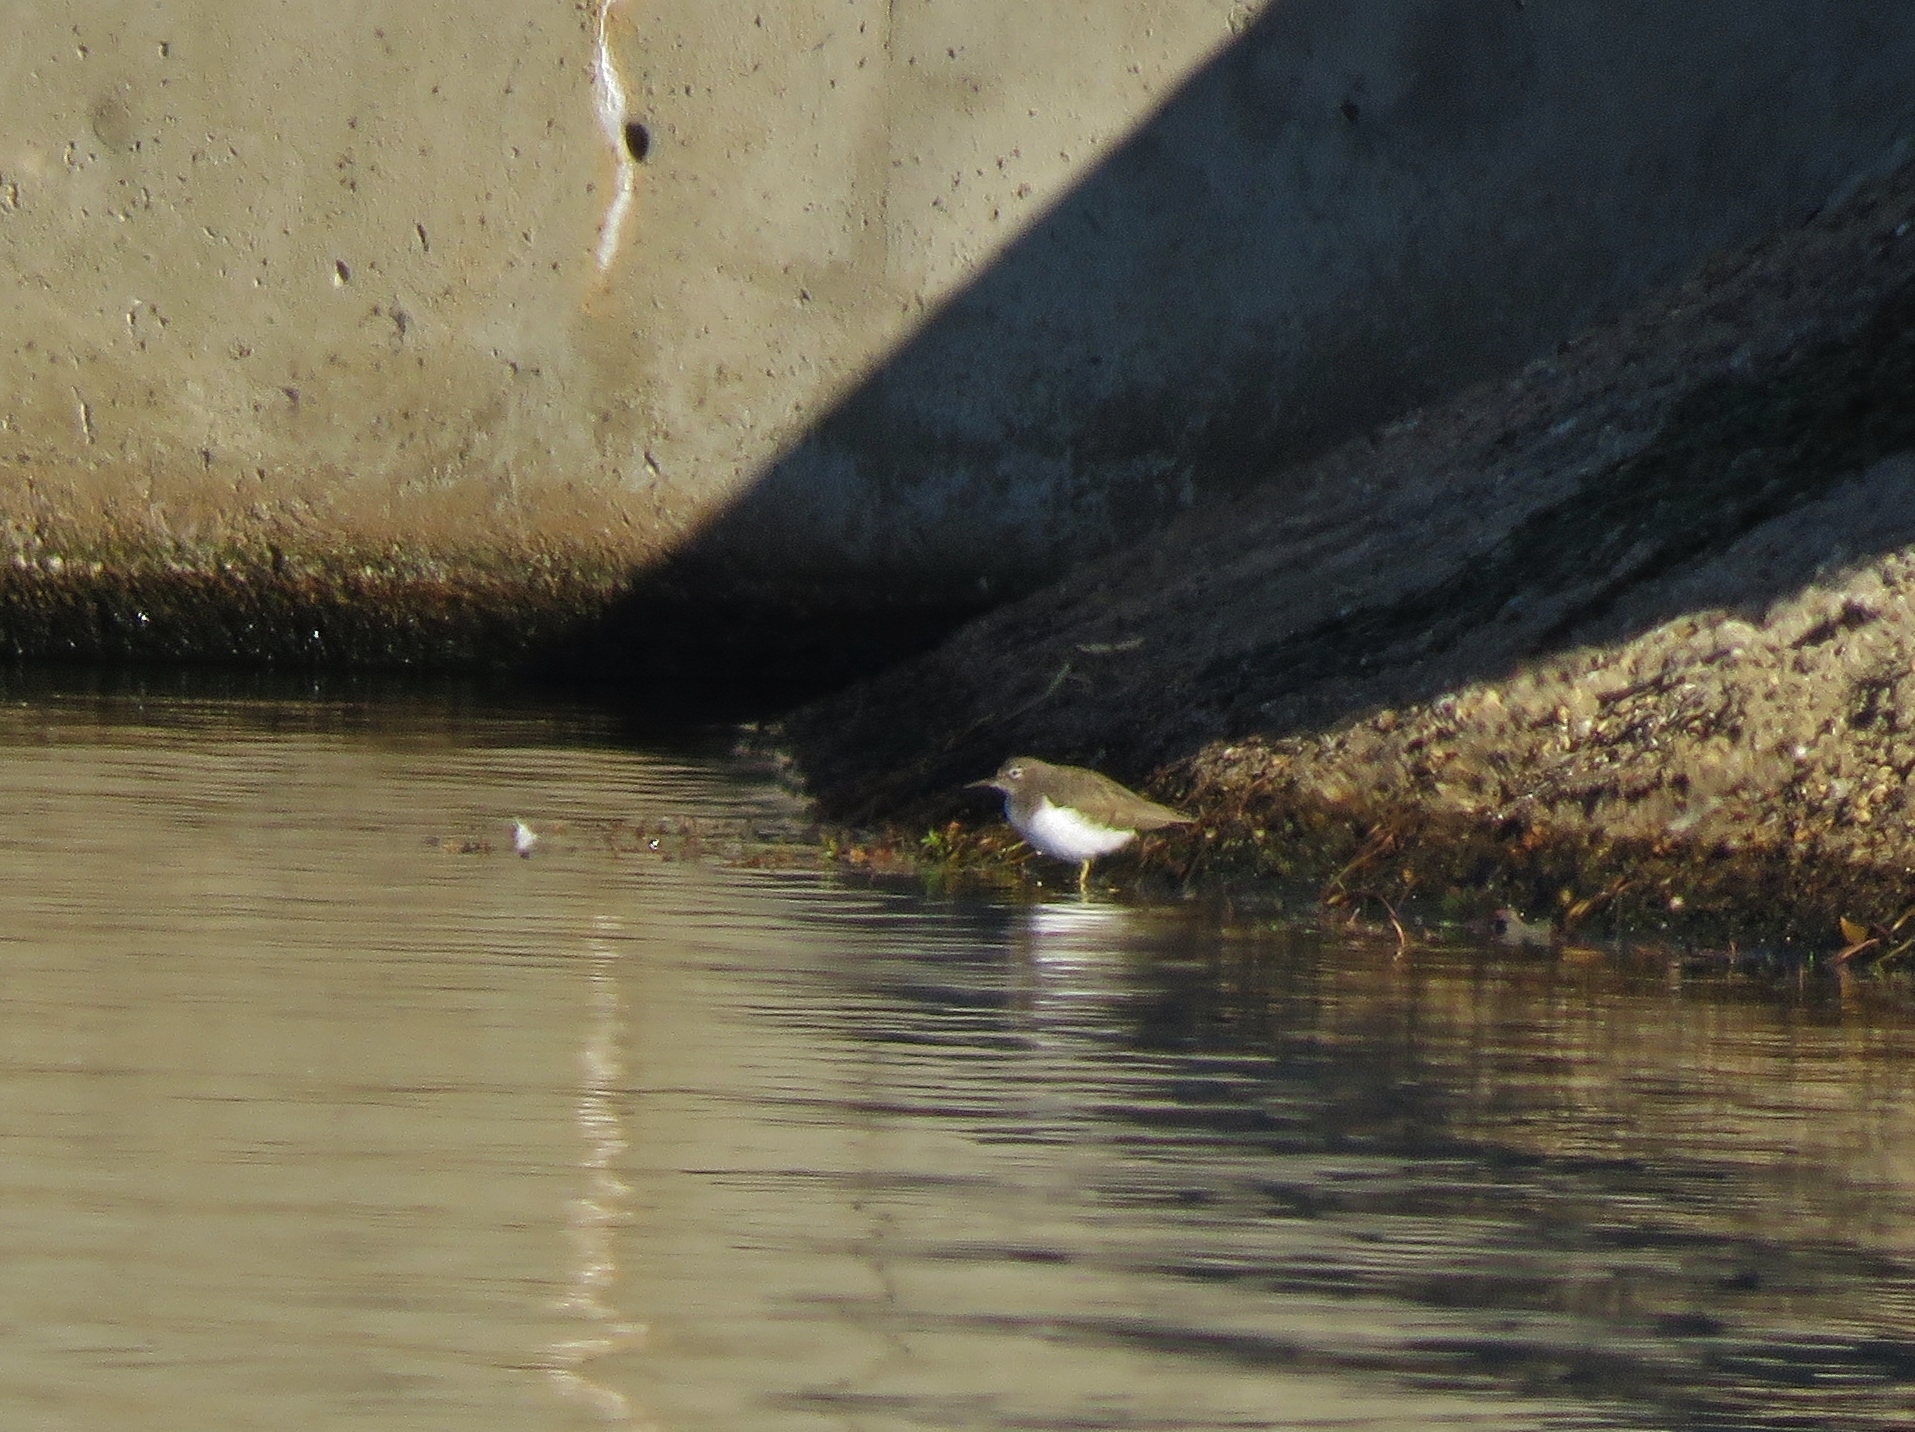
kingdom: Animalia
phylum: Chordata
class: Aves
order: Charadriiformes
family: Scolopacidae
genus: Actitis
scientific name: Actitis macularius
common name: Spotted sandpiper
